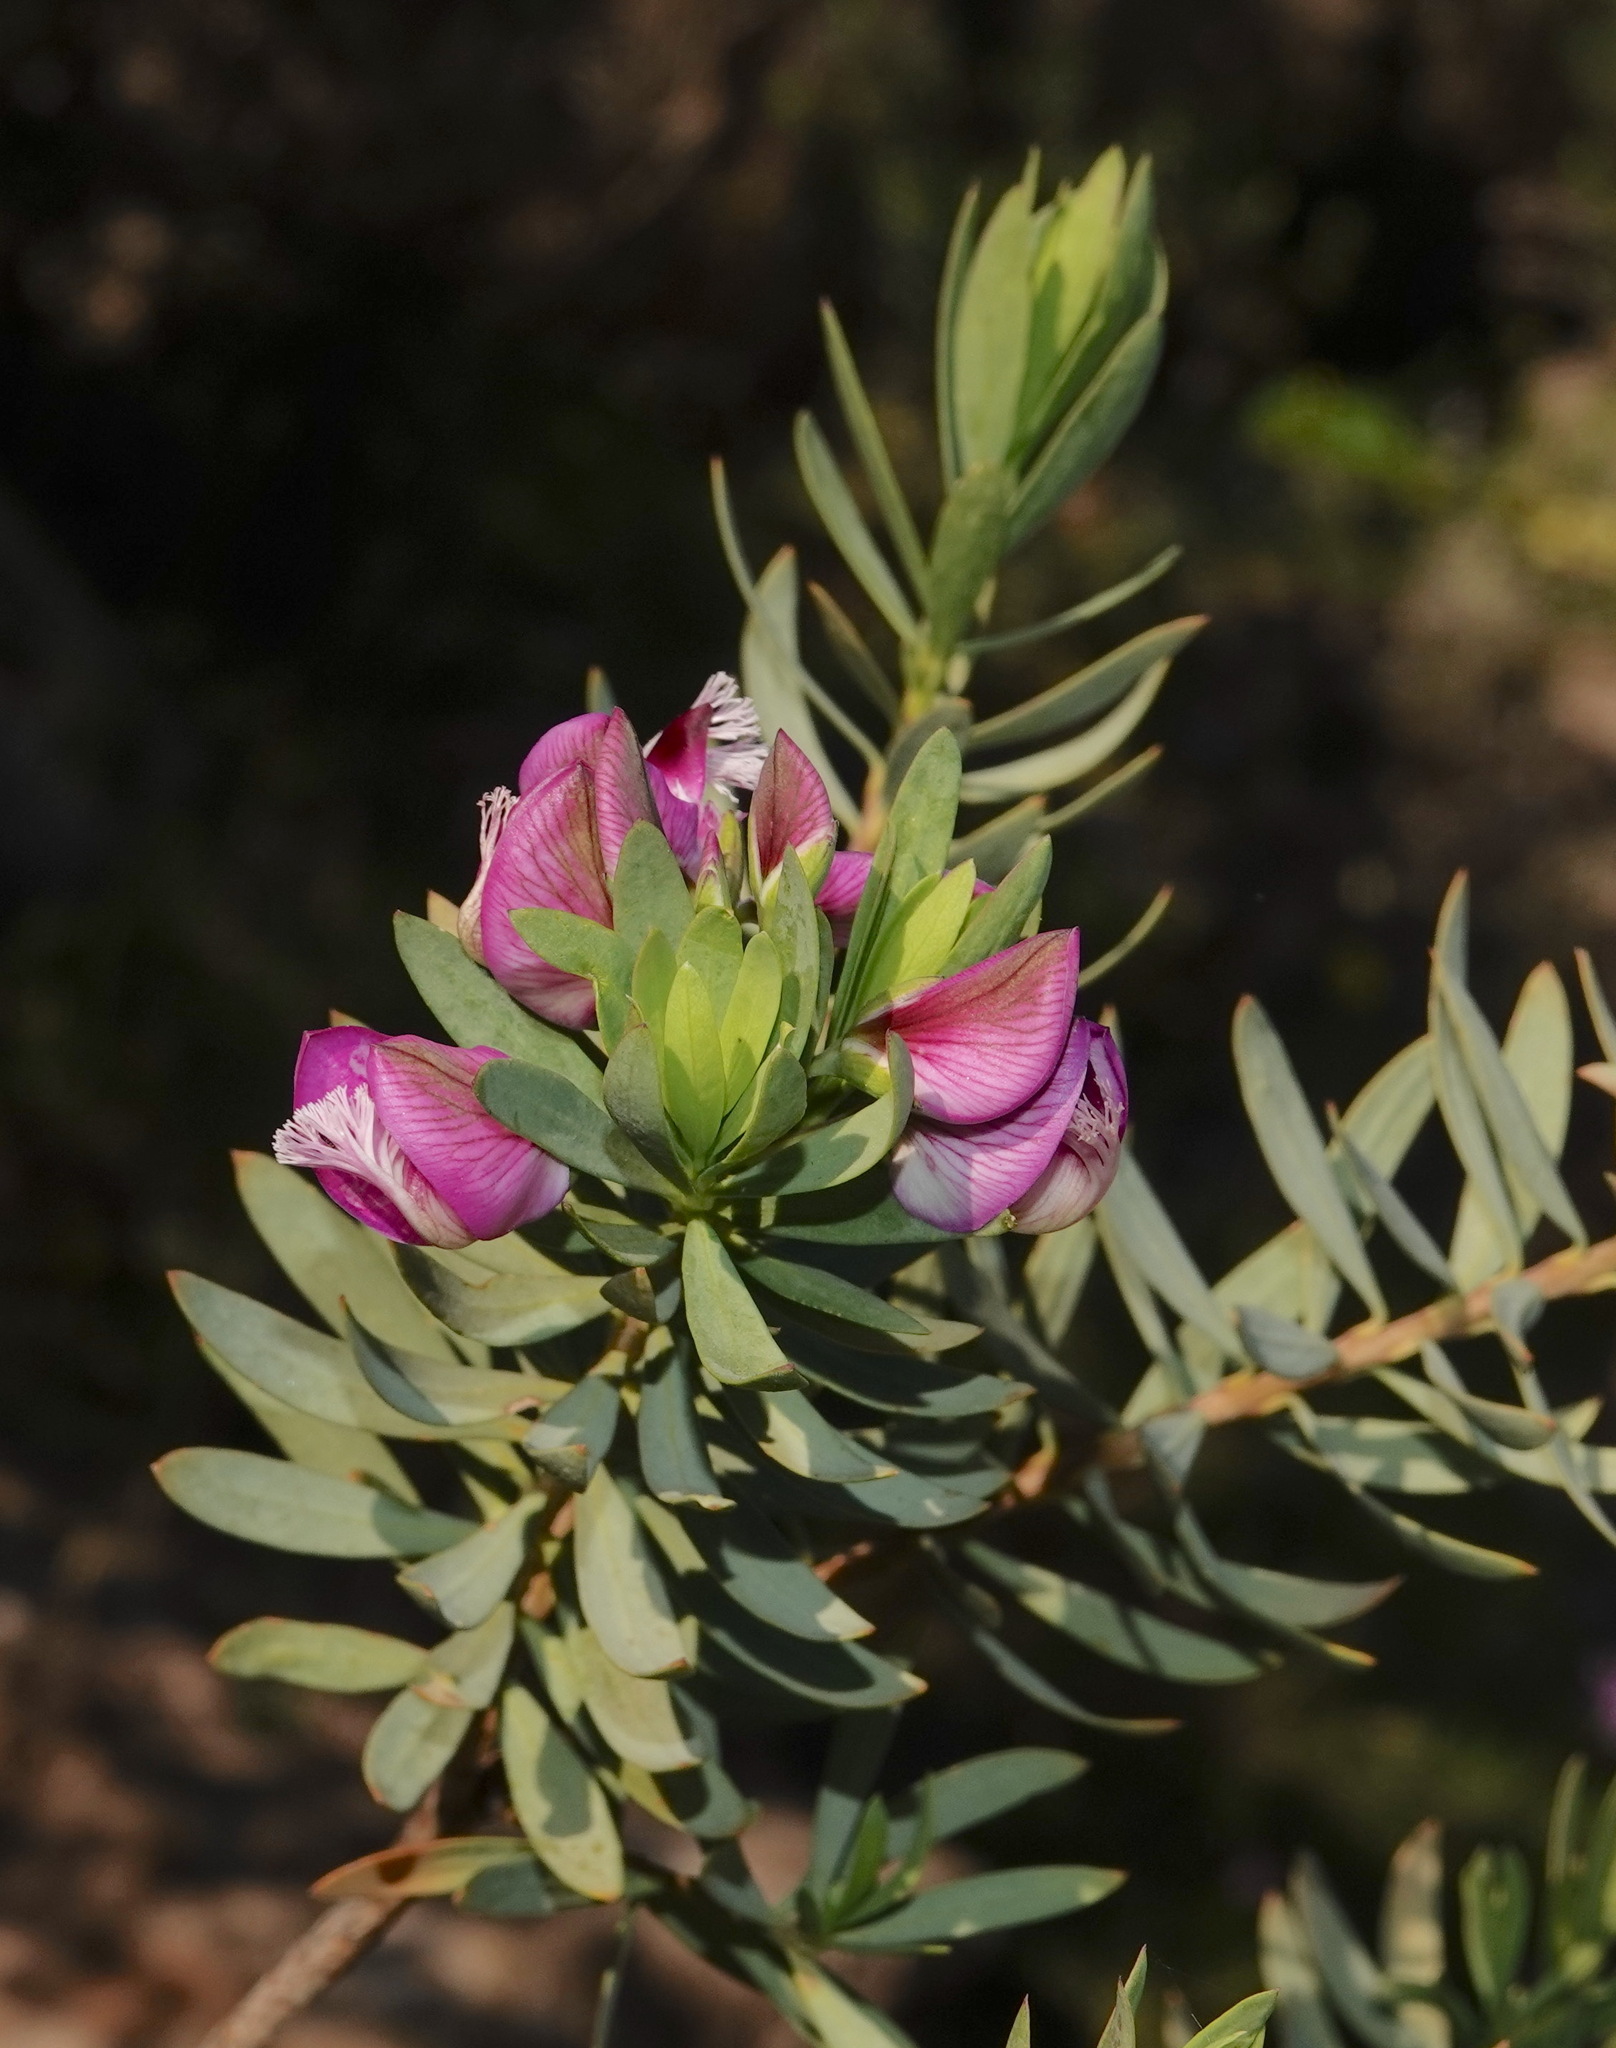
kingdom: Plantae
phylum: Tracheophyta
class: Magnoliopsida
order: Fabales
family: Polygalaceae
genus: Polygala
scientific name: Polygala myrtifolia
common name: Myrtle-leaf milkwort
